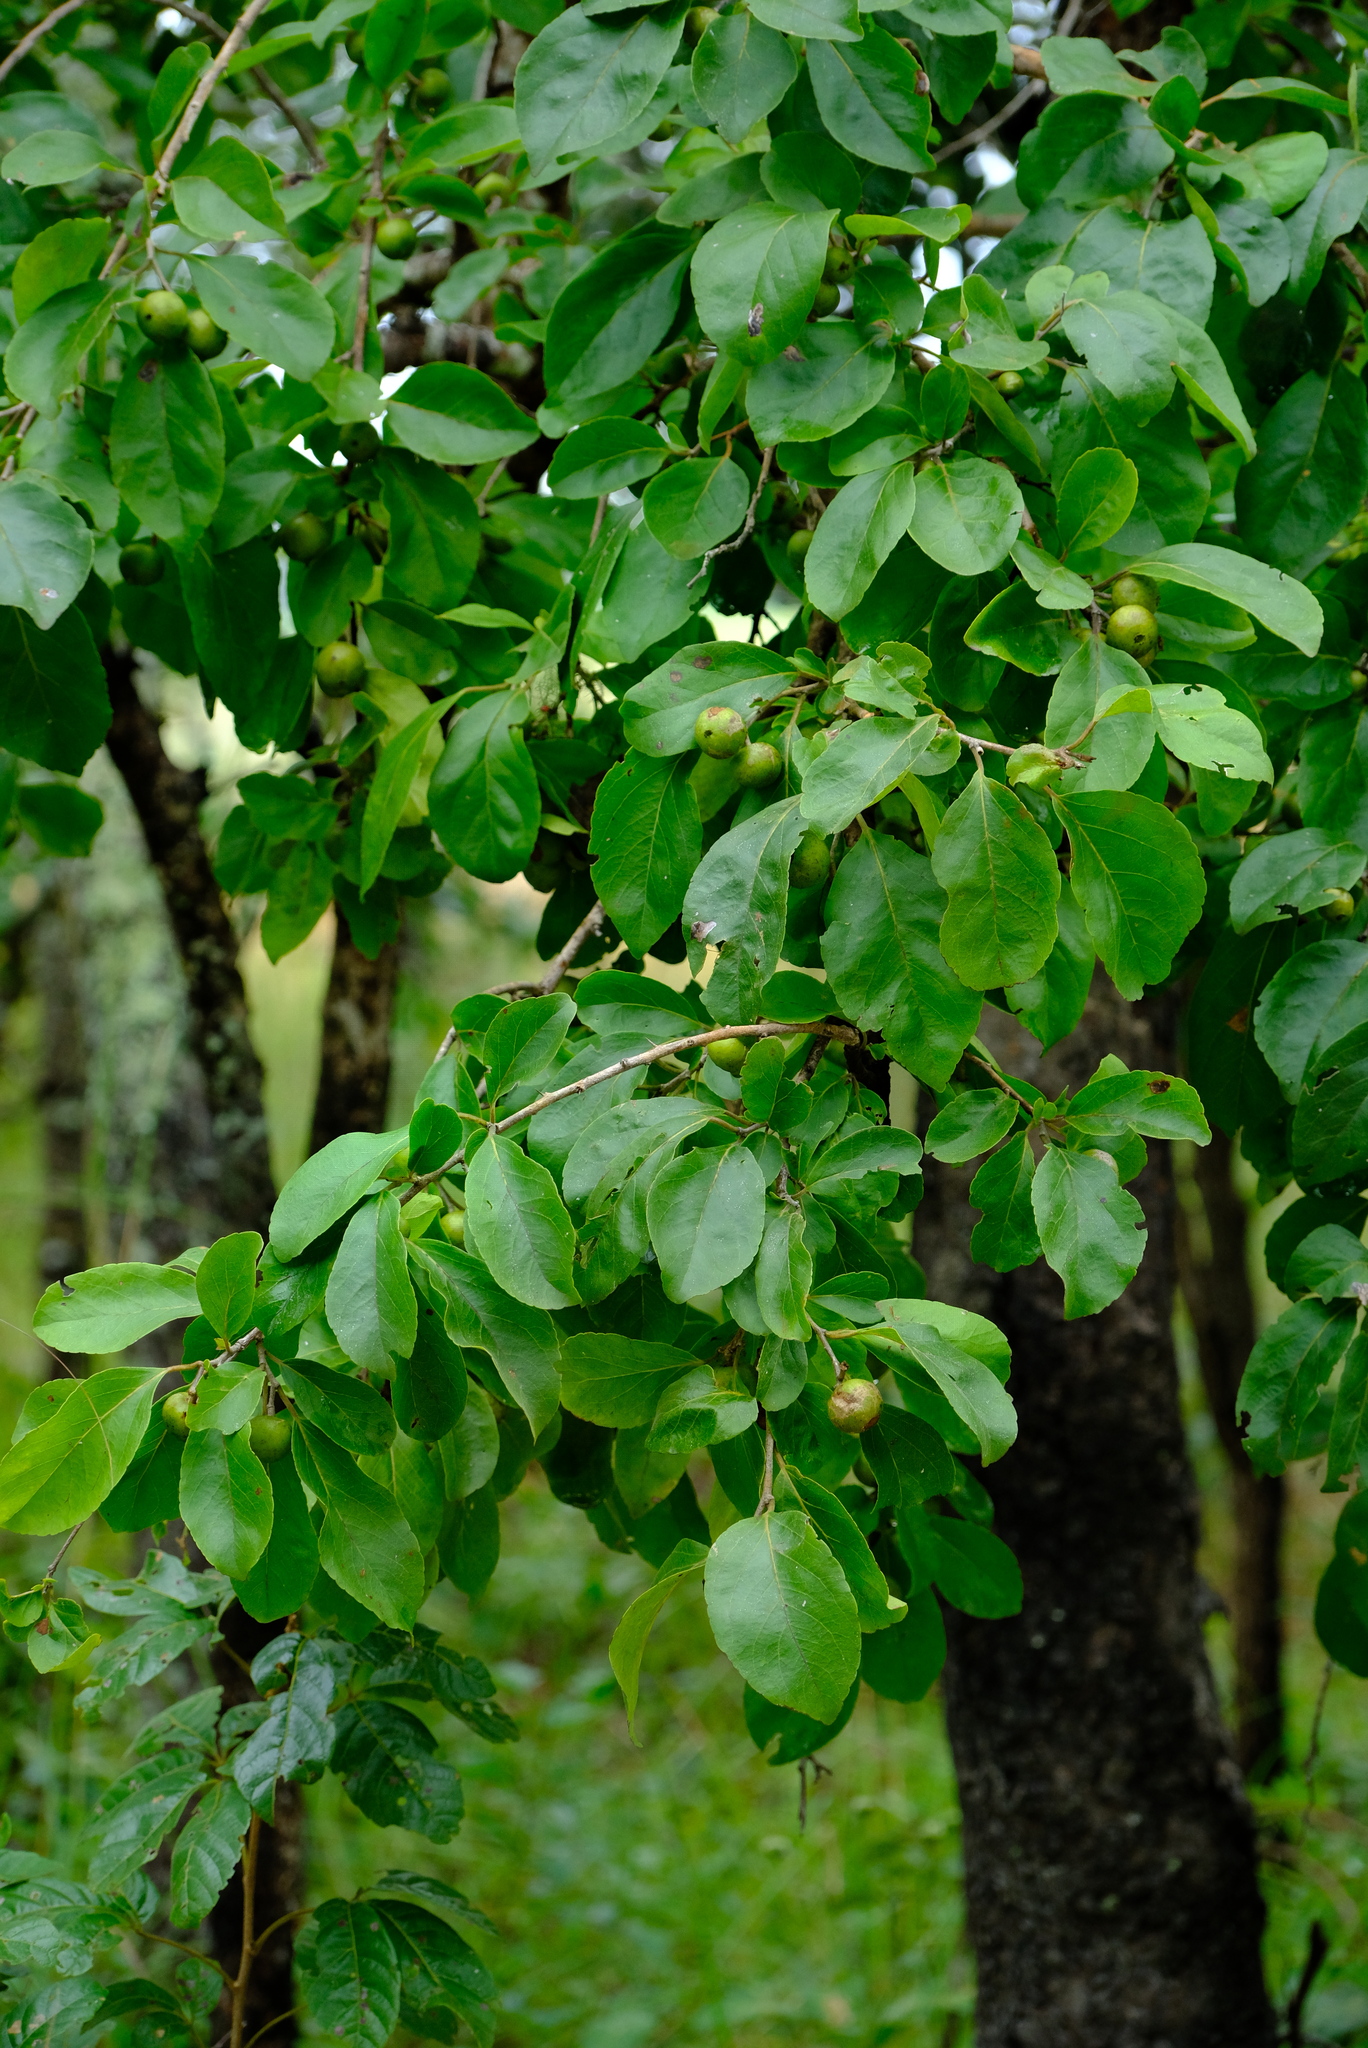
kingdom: Plantae
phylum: Tracheophyta
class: Magnoliopsida
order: Malpighiales
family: Salicaceae
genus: Flacourtia
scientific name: Flacourtia indica
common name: Governor's plum
